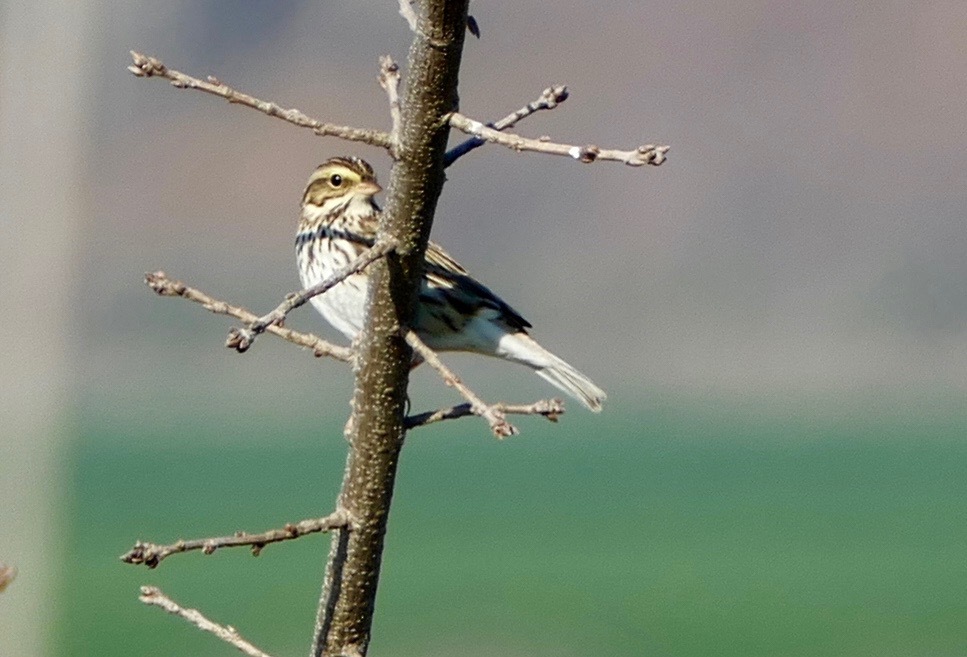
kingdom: Animalia
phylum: Chordata
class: Aves
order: Passeriformes
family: Passerellidae
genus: Passerculus
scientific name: Passerculus sandwichensis
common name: Savannah sparrow
